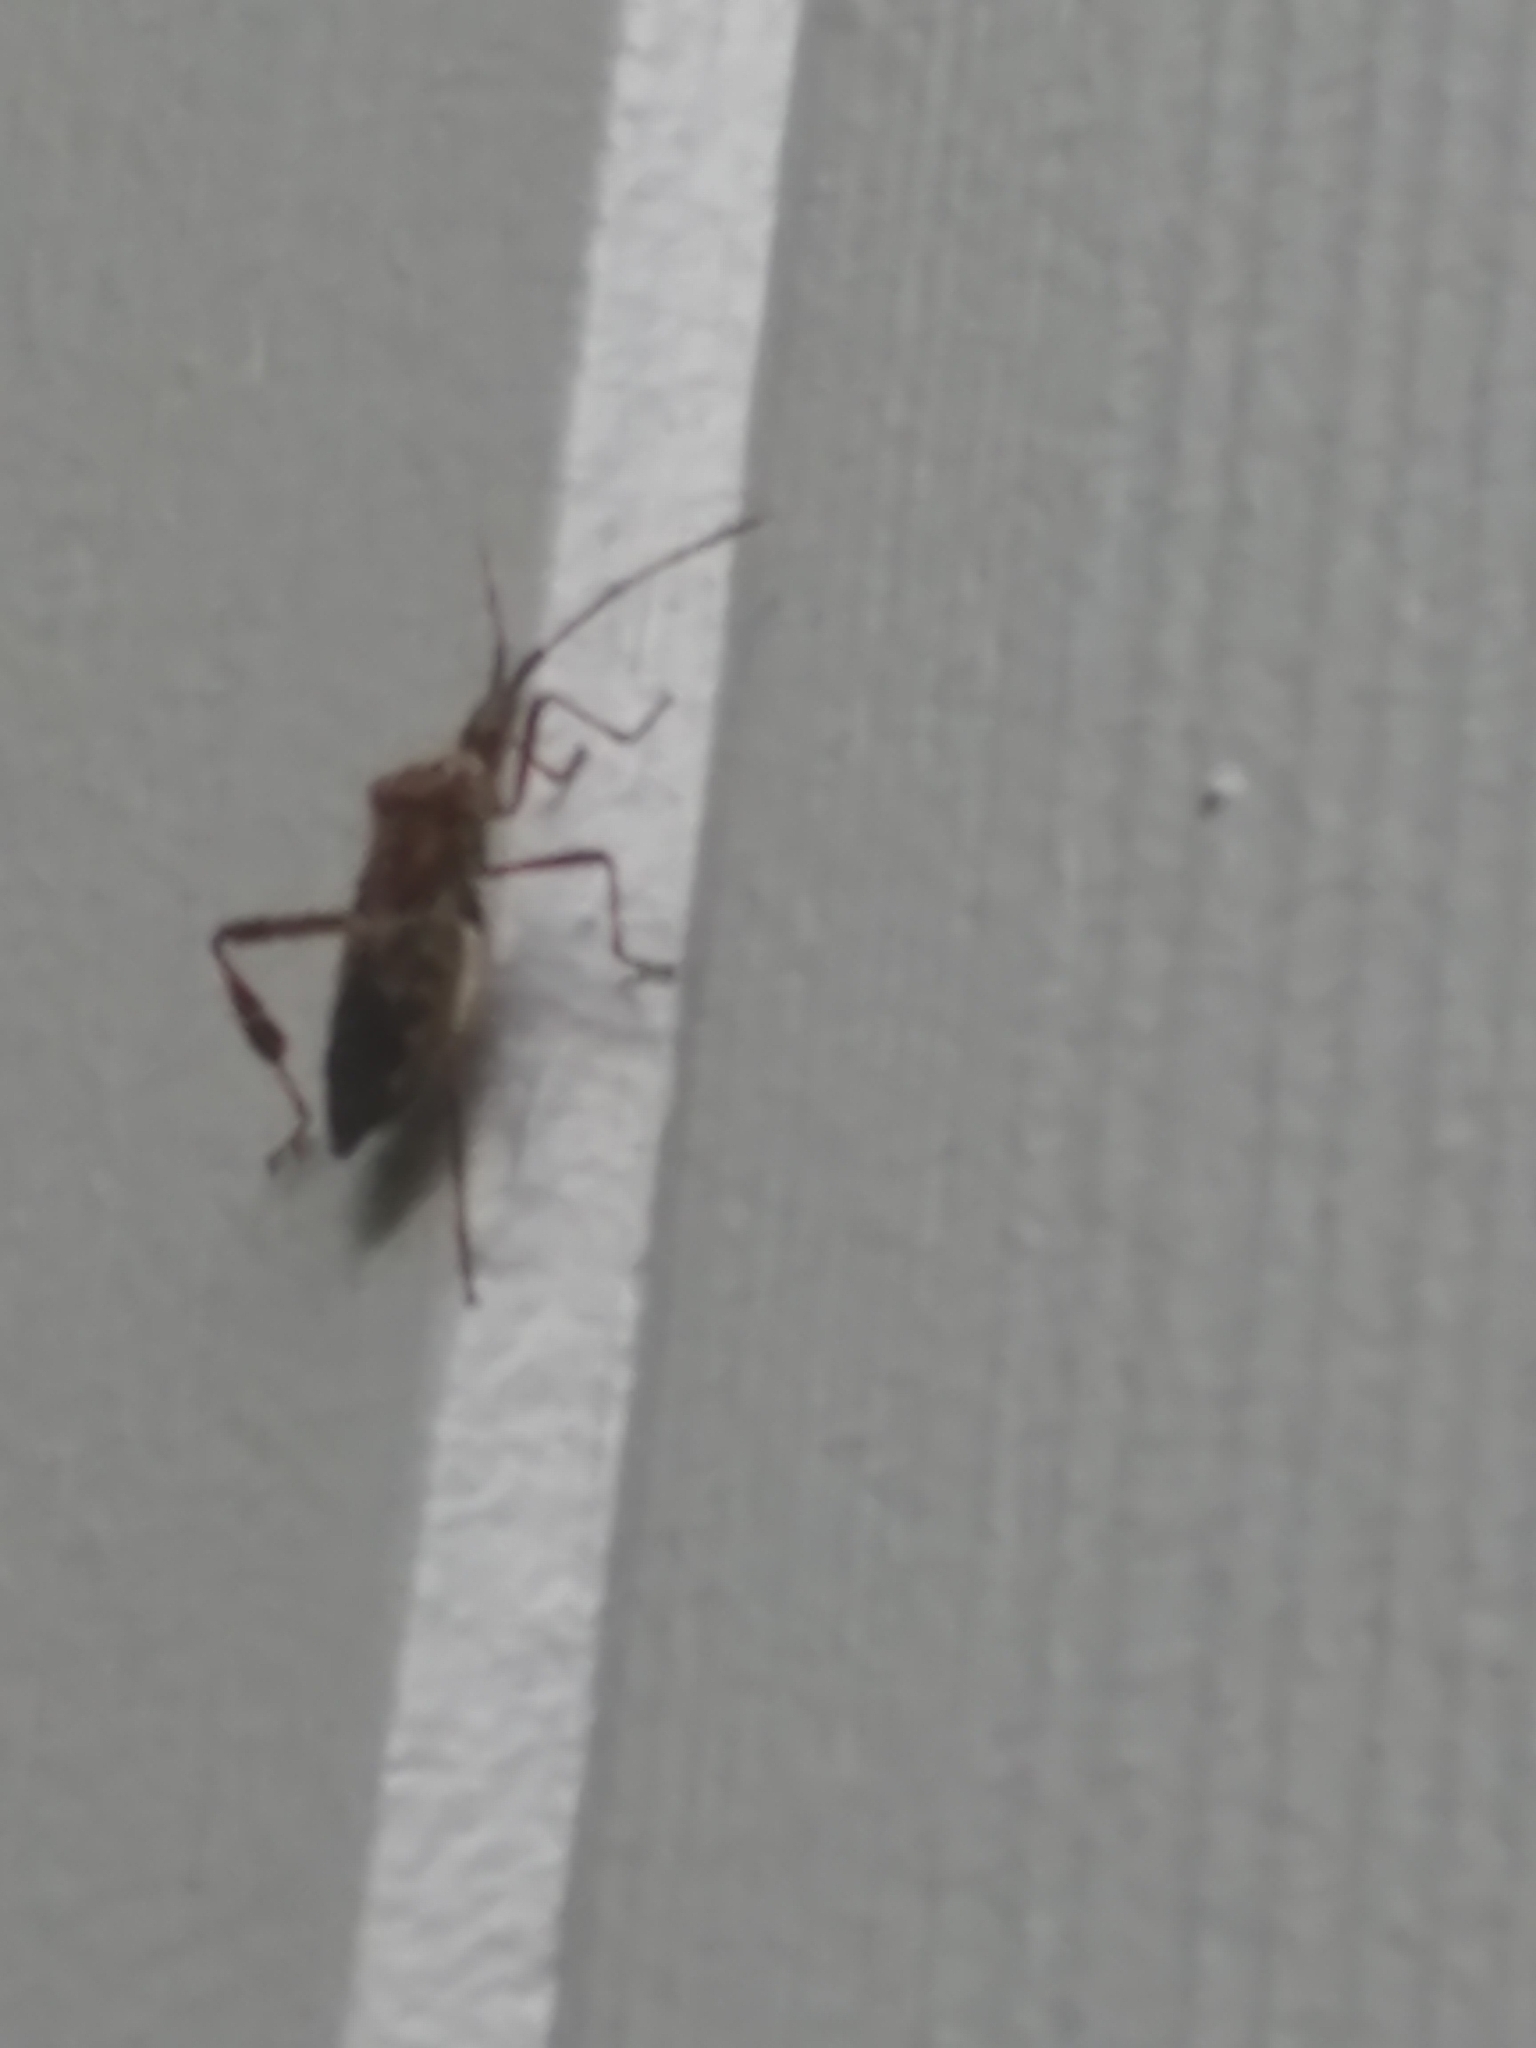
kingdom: Animalia
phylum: Arthropoda
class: Insecta
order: Hemiptera
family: Coreidae
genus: Leptoglossus
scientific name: Leptoglossus occidentalis
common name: Western conifer-seed bug
